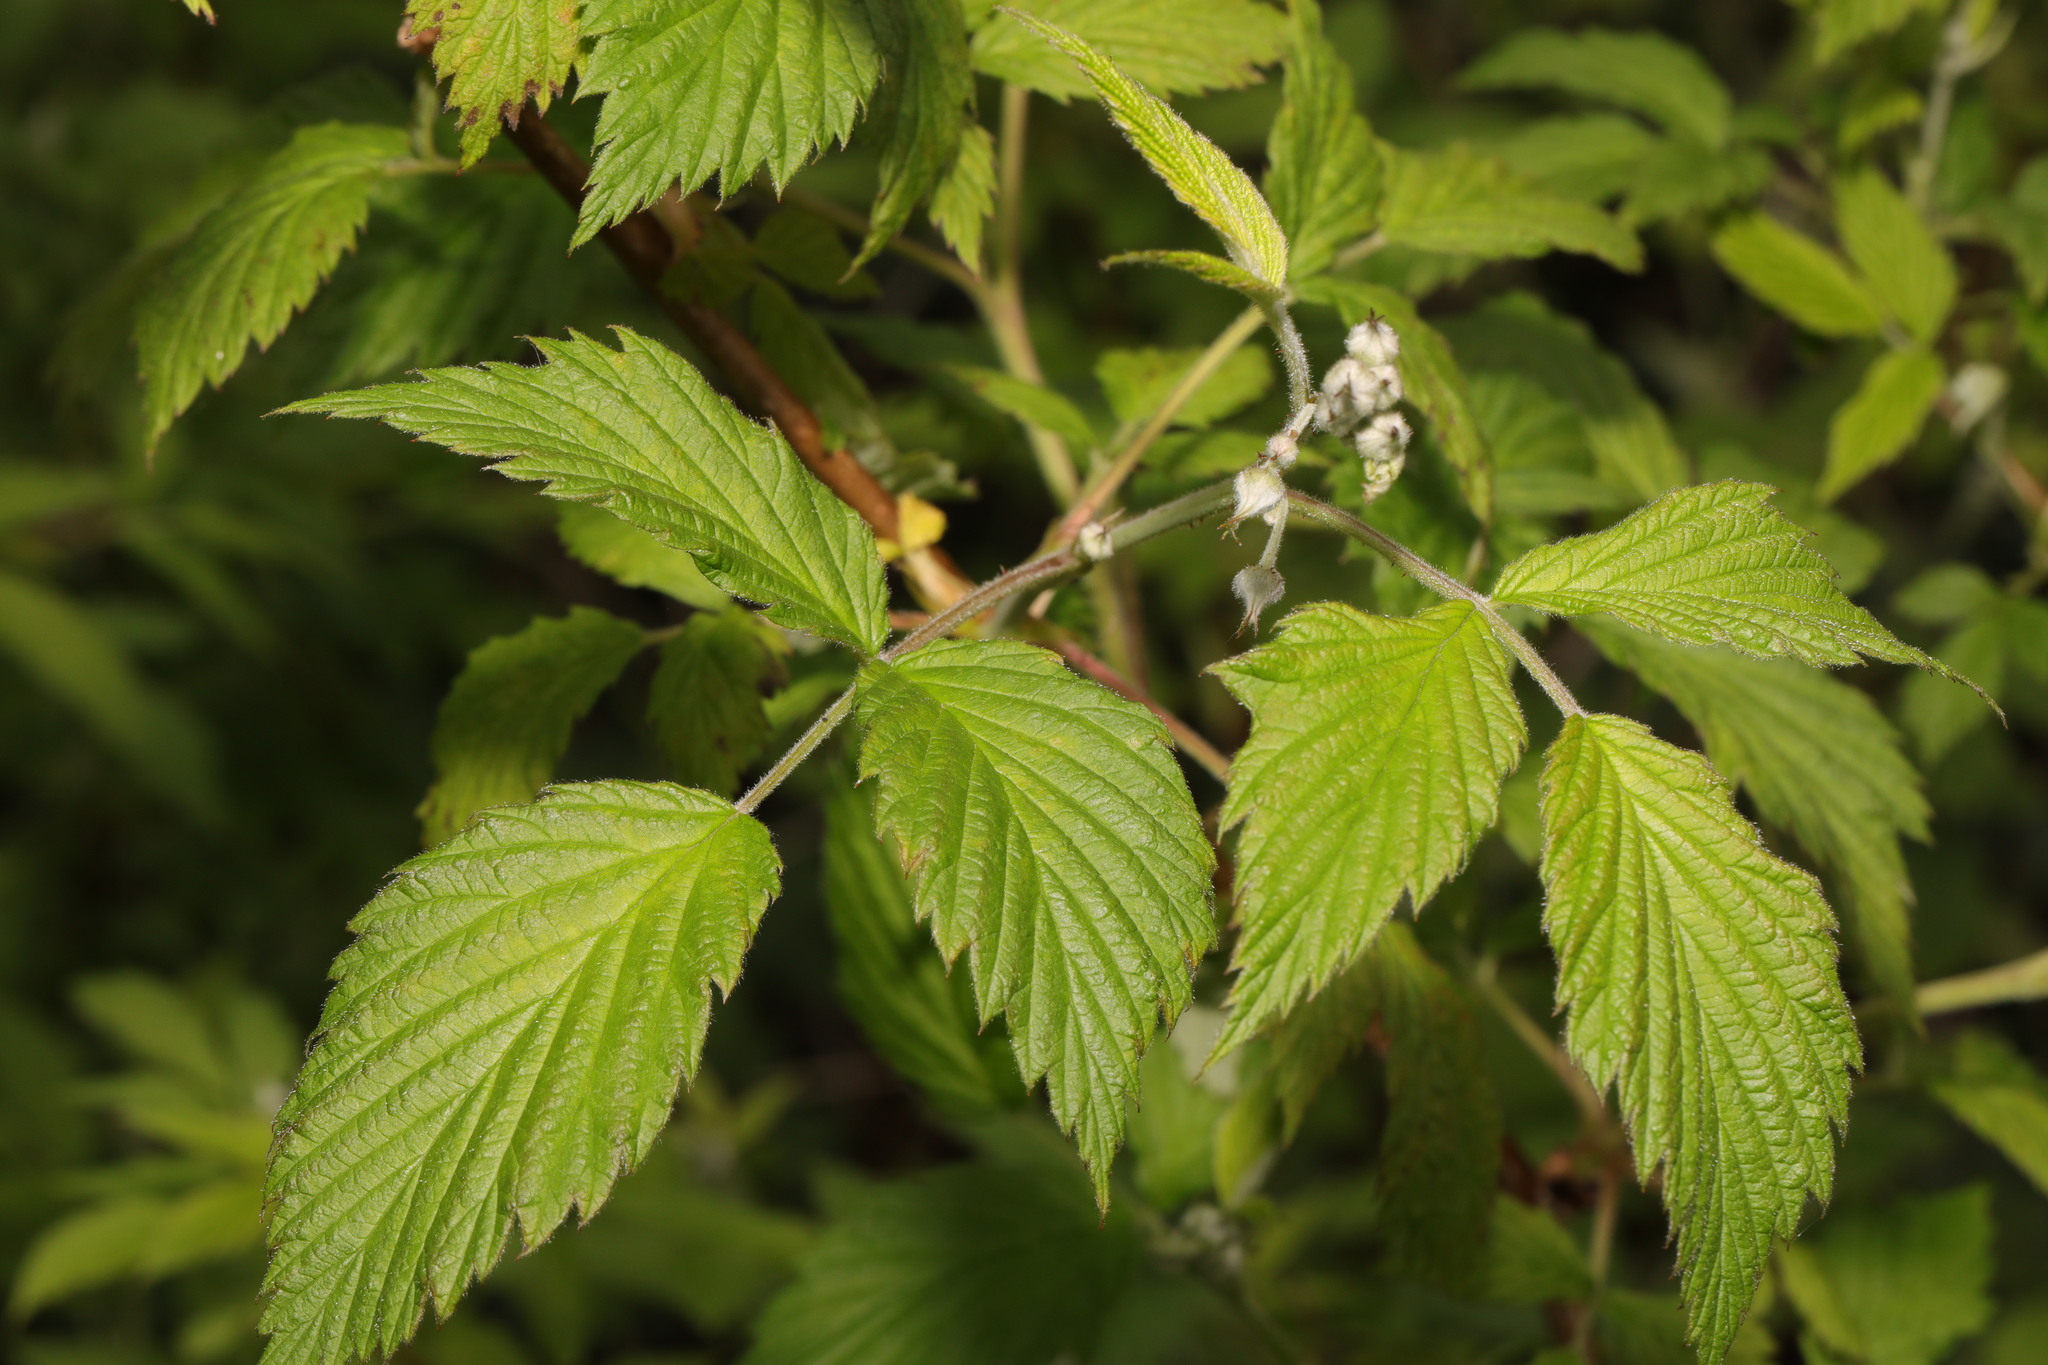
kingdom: Plantae
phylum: Tracheophyta
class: Magnoliopsida
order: Rosales
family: Rosaceae
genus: Rubus
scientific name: Rubus idaeus
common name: Raspberry
